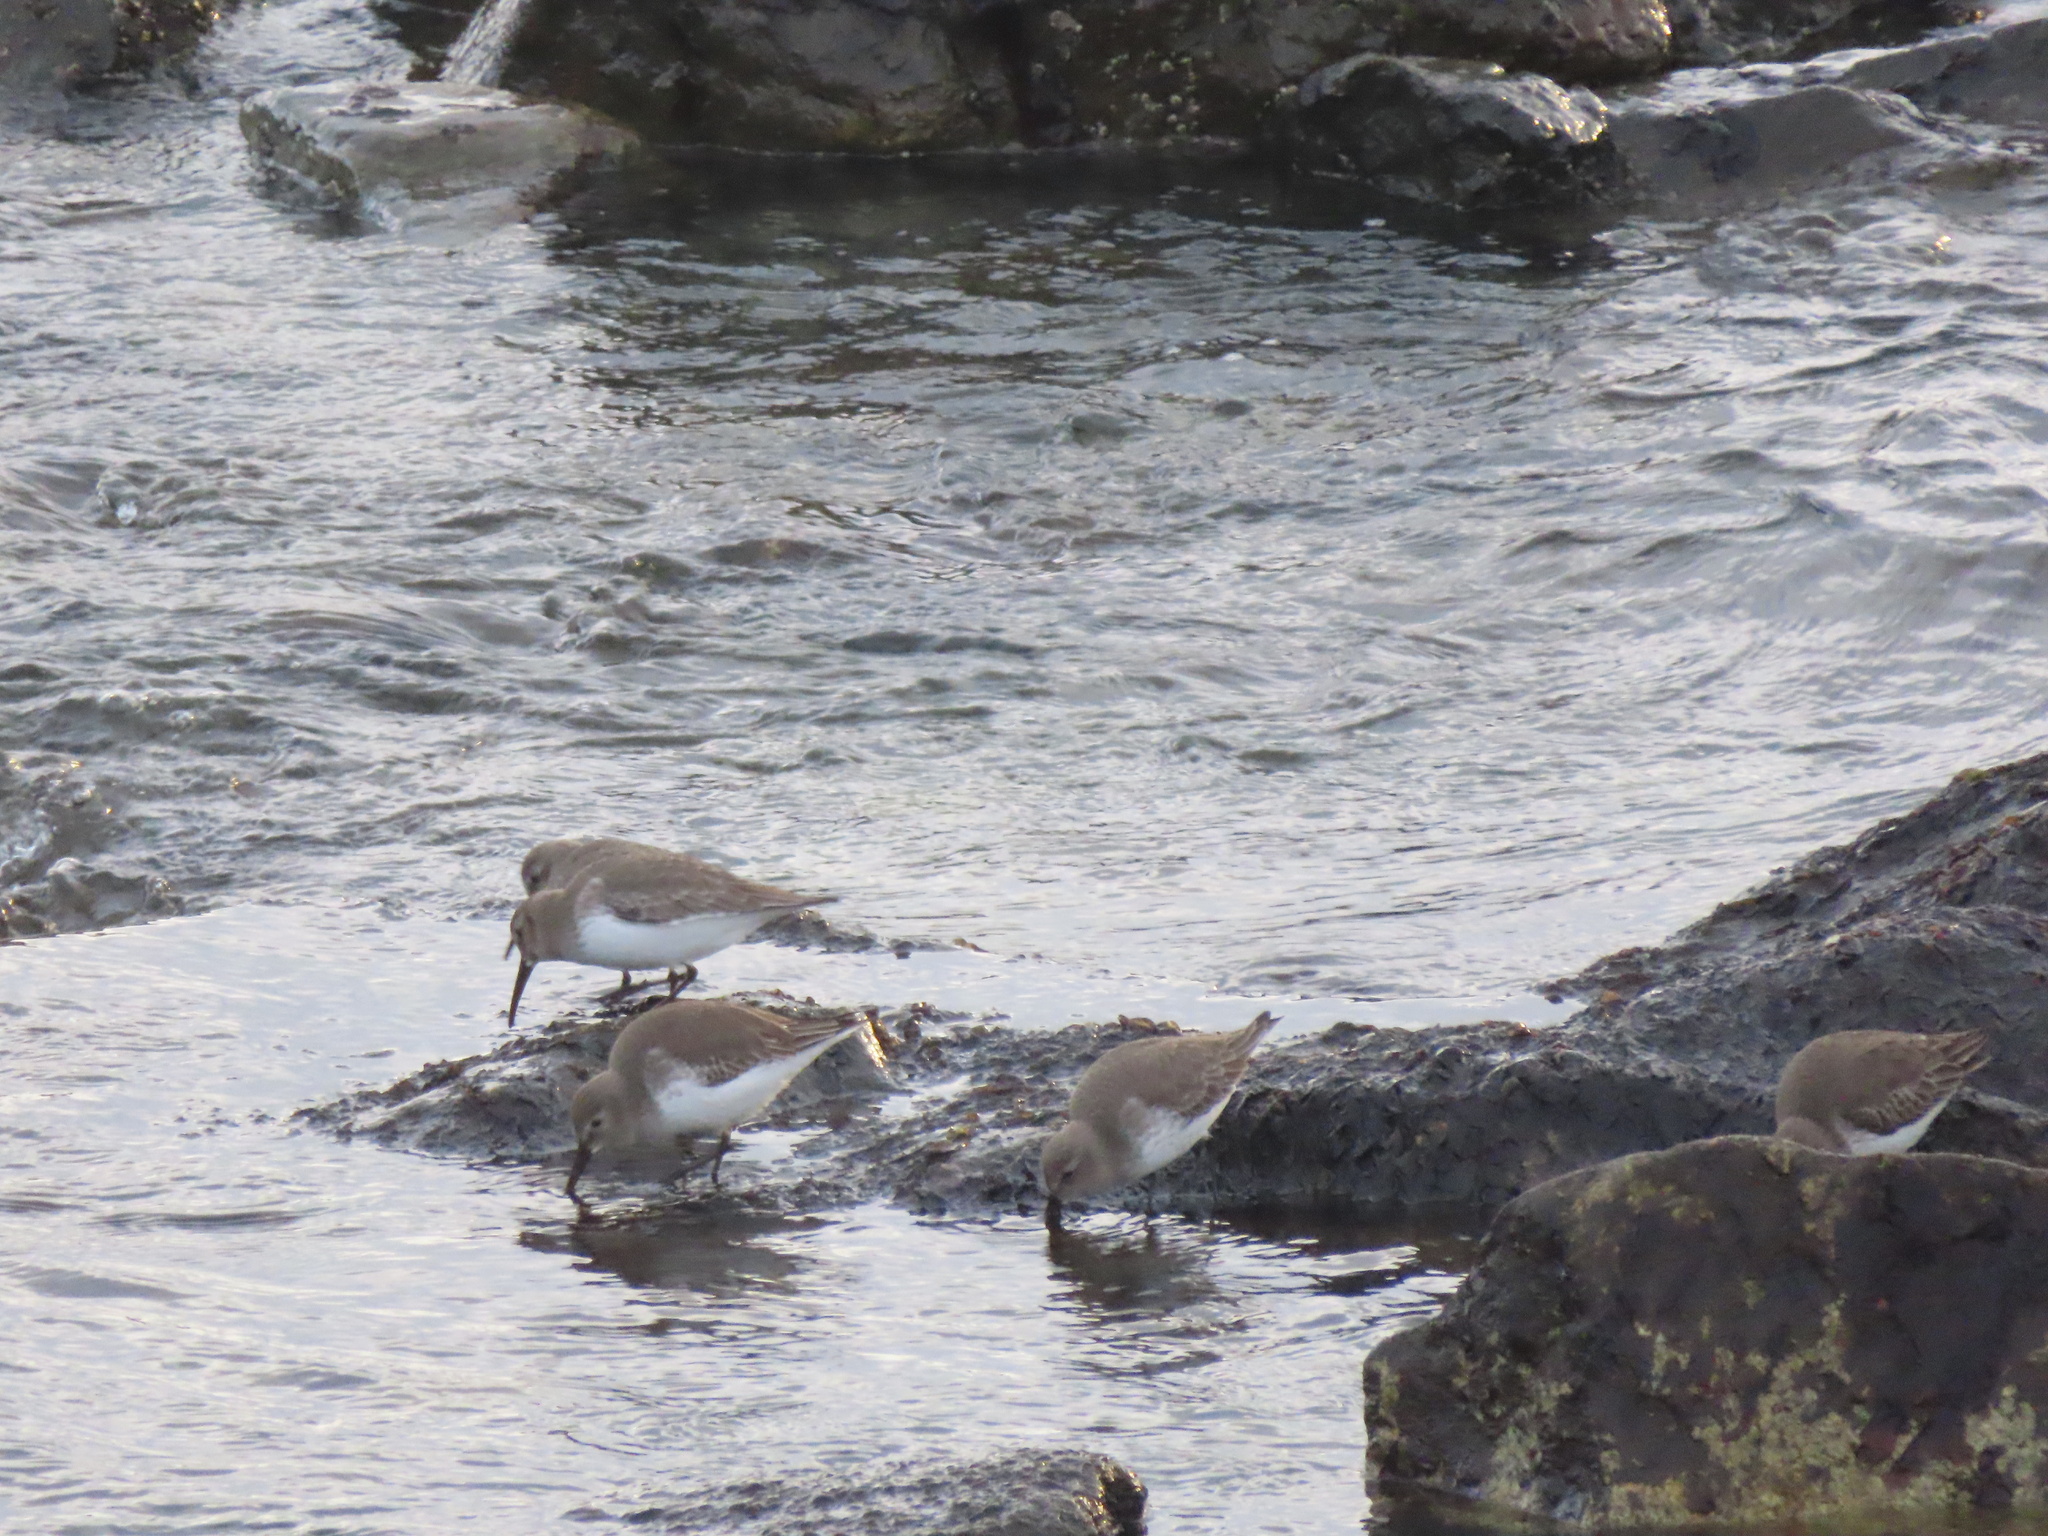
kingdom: Animalia
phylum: Chordata
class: Aves
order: Charadriiformes
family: Scolopacidae
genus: Calidris
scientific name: Calidris alpina
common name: Dunlin
